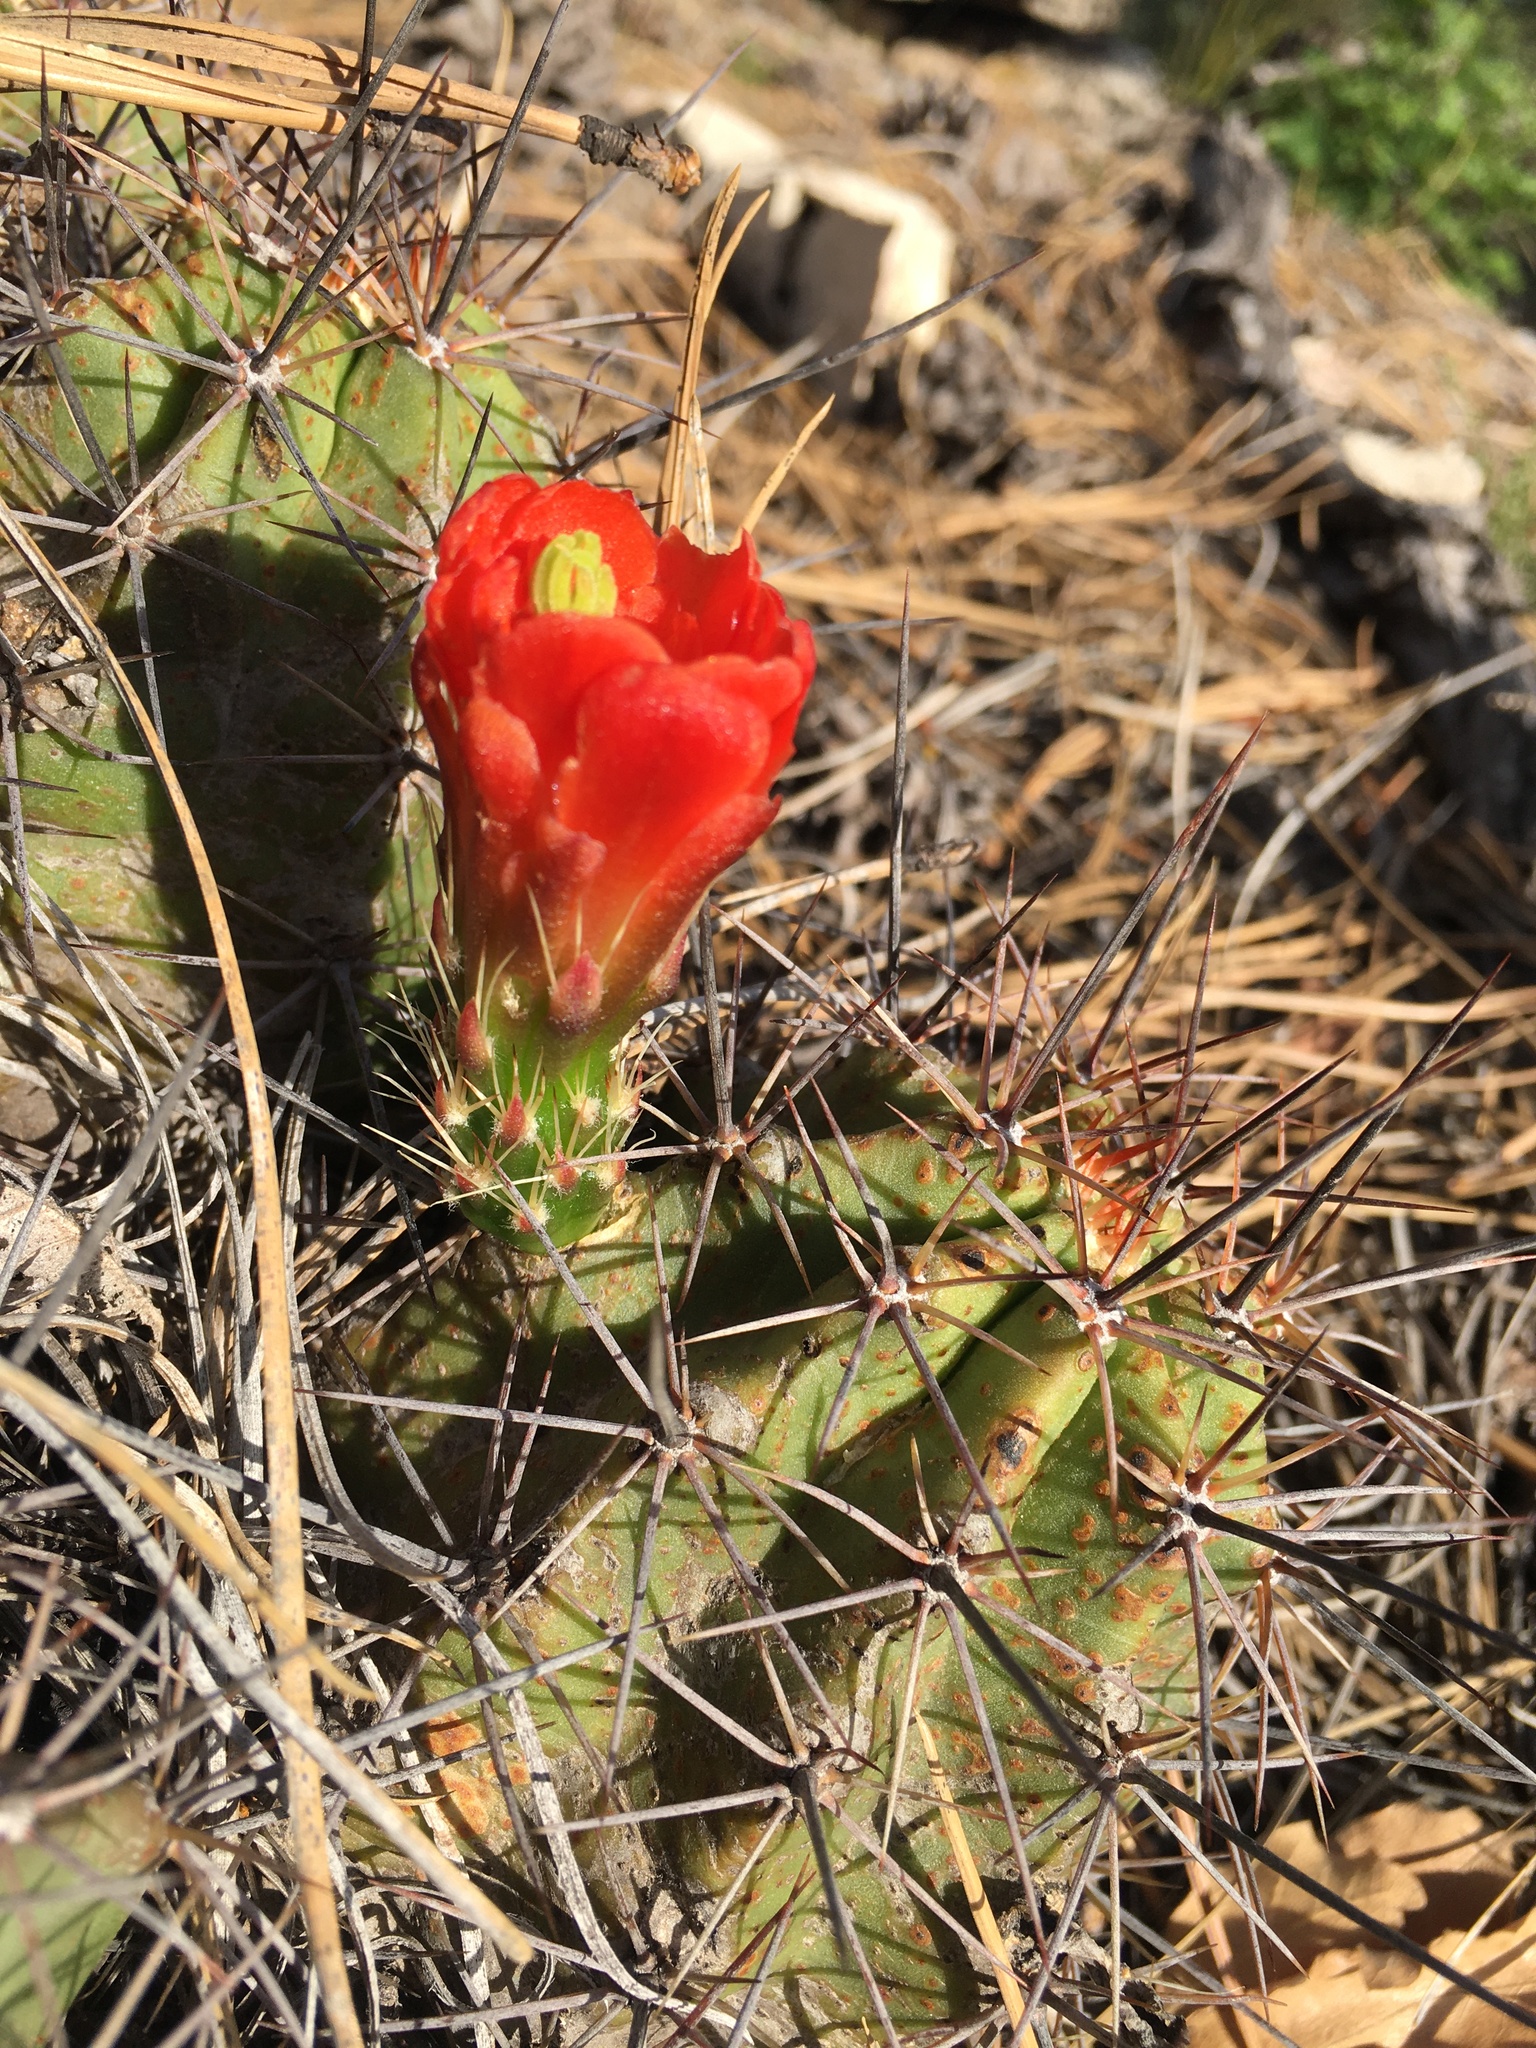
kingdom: Plantae
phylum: Tracheophyta
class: Magnoliopsida
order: Caryophyllales
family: Cactaceae
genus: Echinocereus
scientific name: Echinocereus coccineus
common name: Scarlet hedgehog cactus
